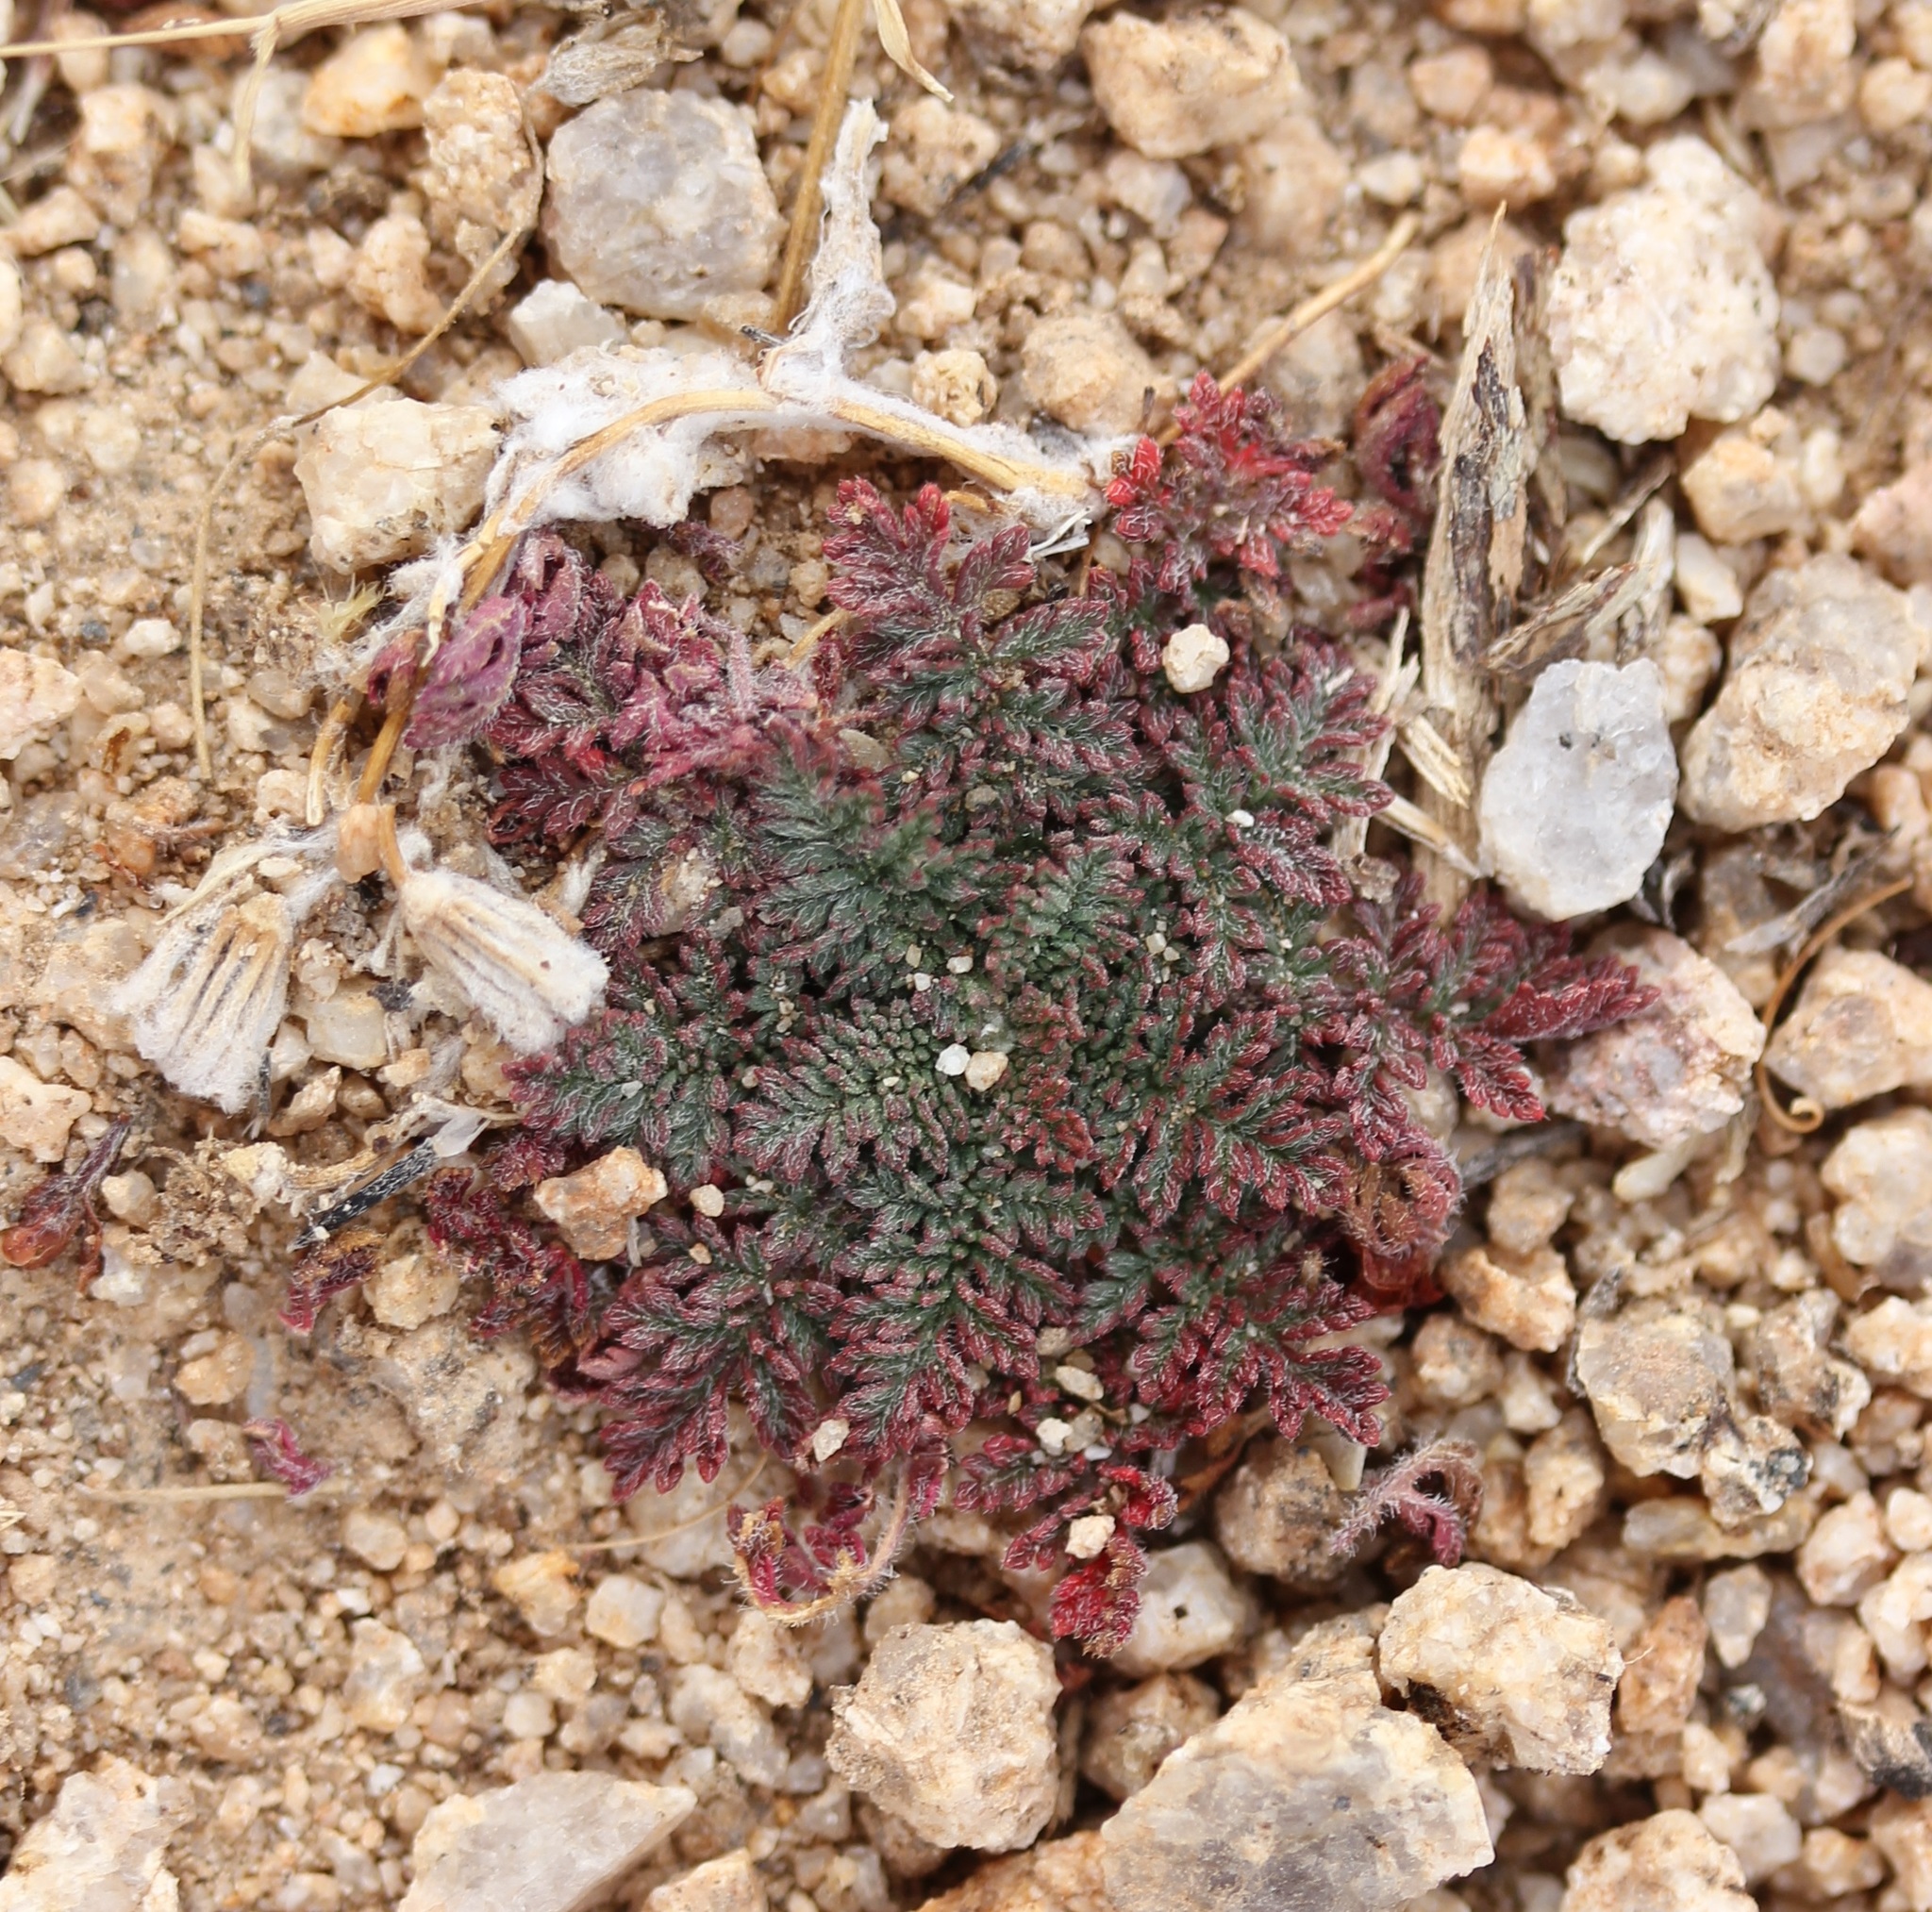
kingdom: Plantae
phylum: Tracheophyta
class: Magnoliopsida
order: Geraniales
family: Geraniaceae
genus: Erodium
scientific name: Erodium cicutarium
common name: Common stork's-bill
